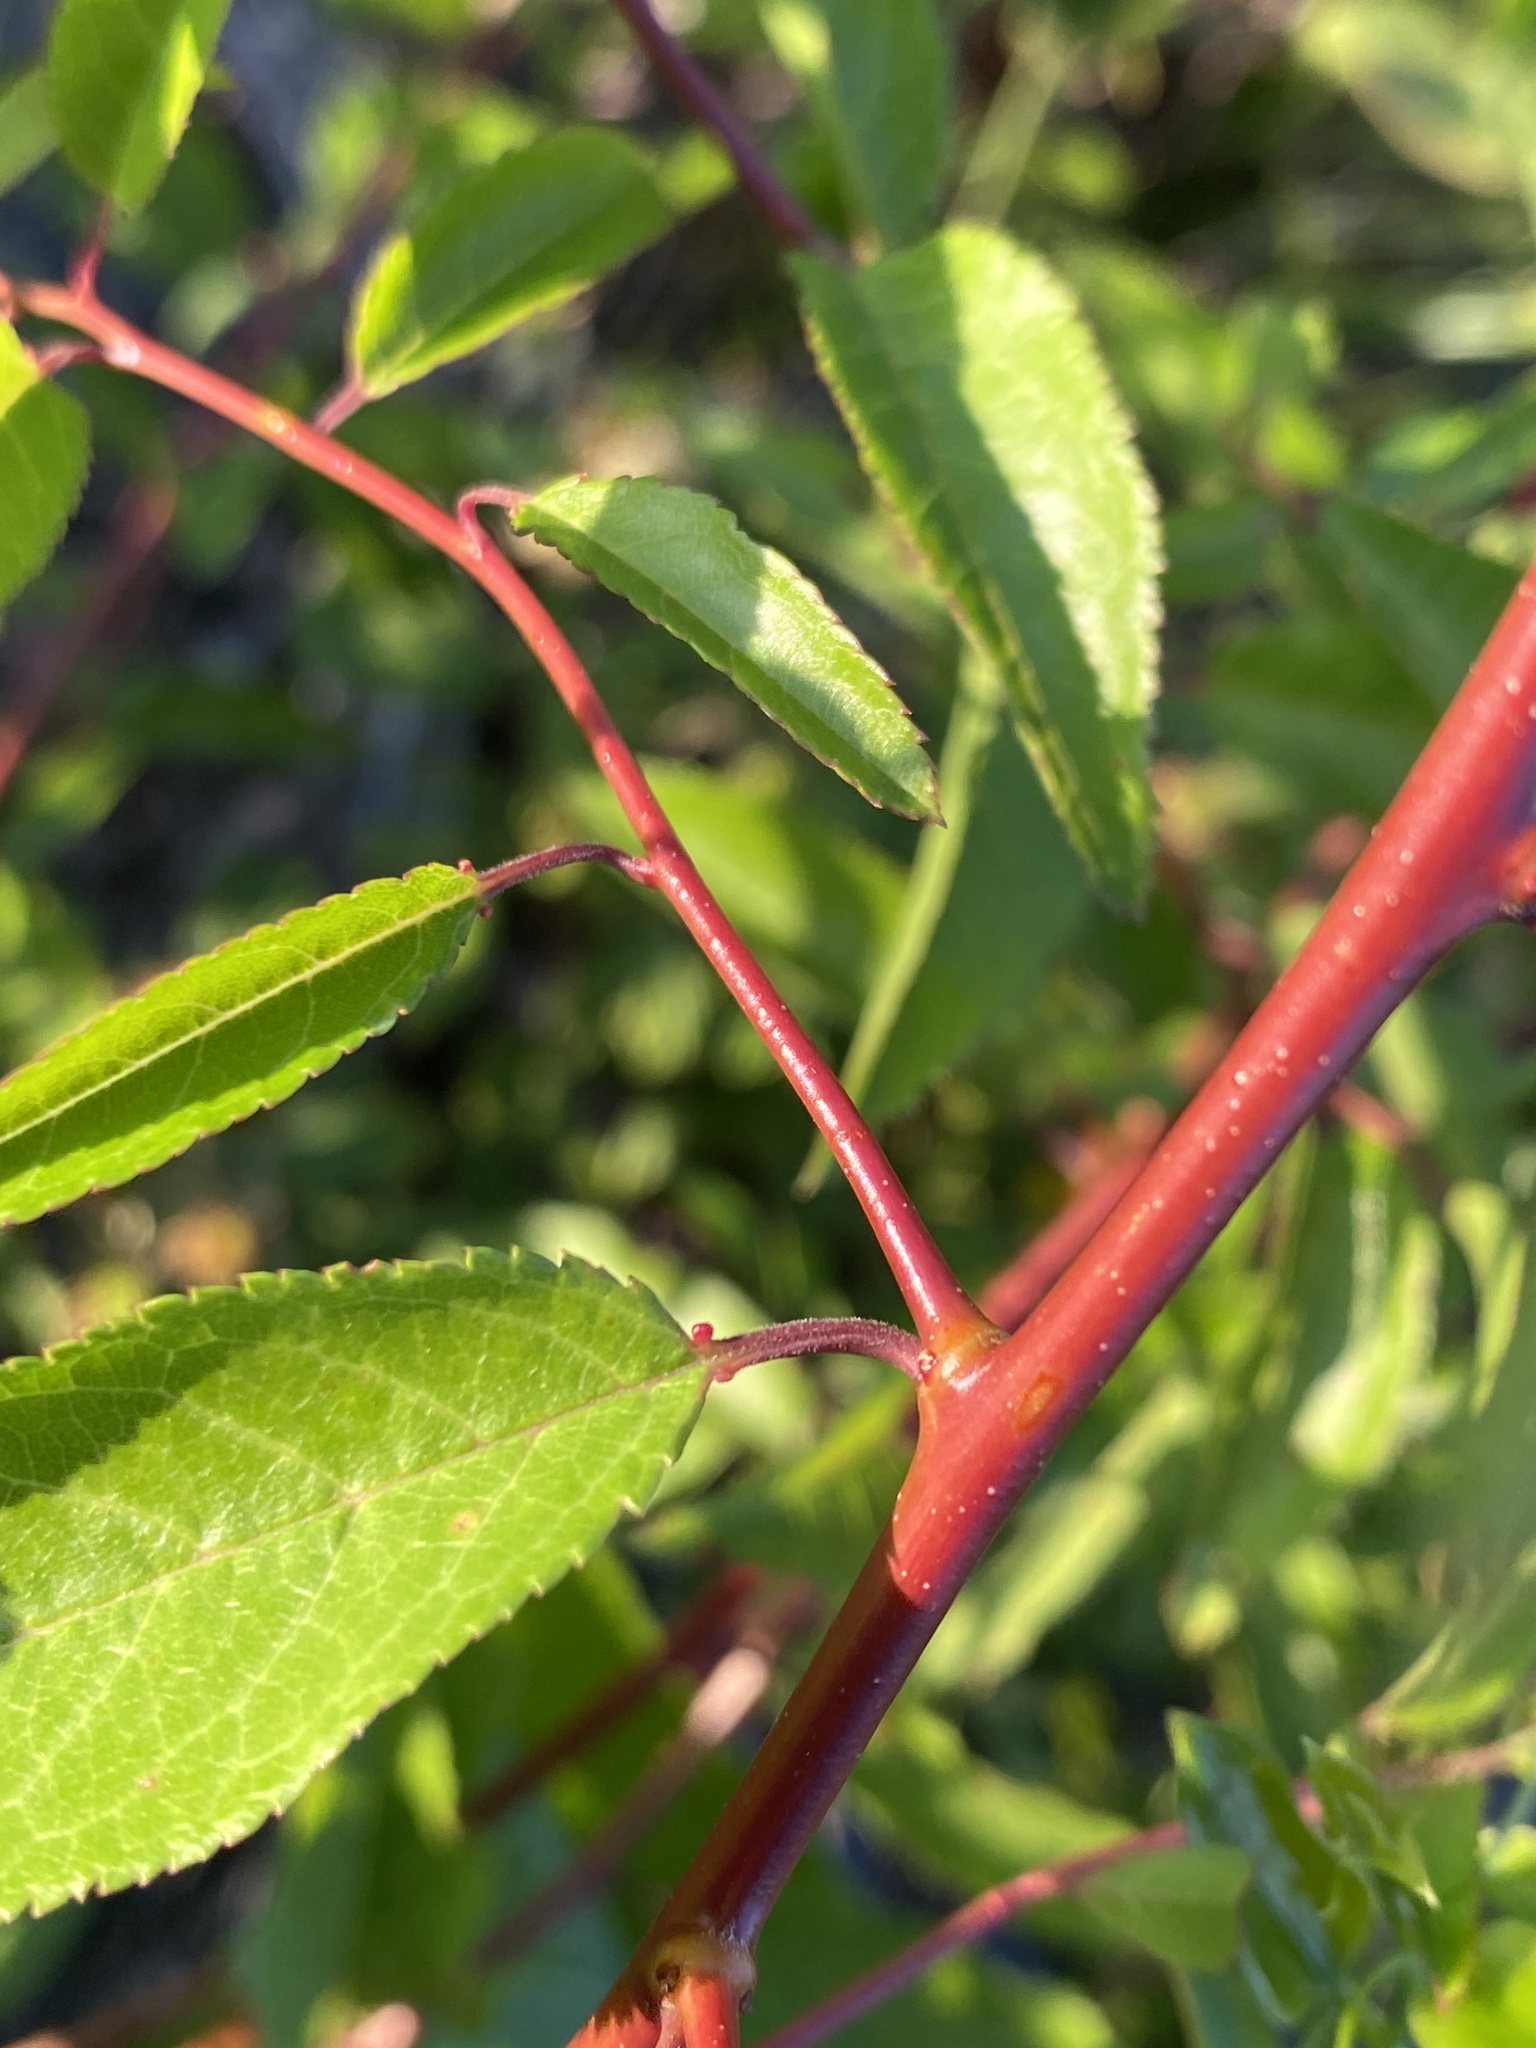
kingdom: Plantae
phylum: Tracheophyta
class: Magnoliopsida
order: Rosales
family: Rosaceae
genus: Prunus
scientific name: Prunus angustifolia
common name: Cherokee plum
